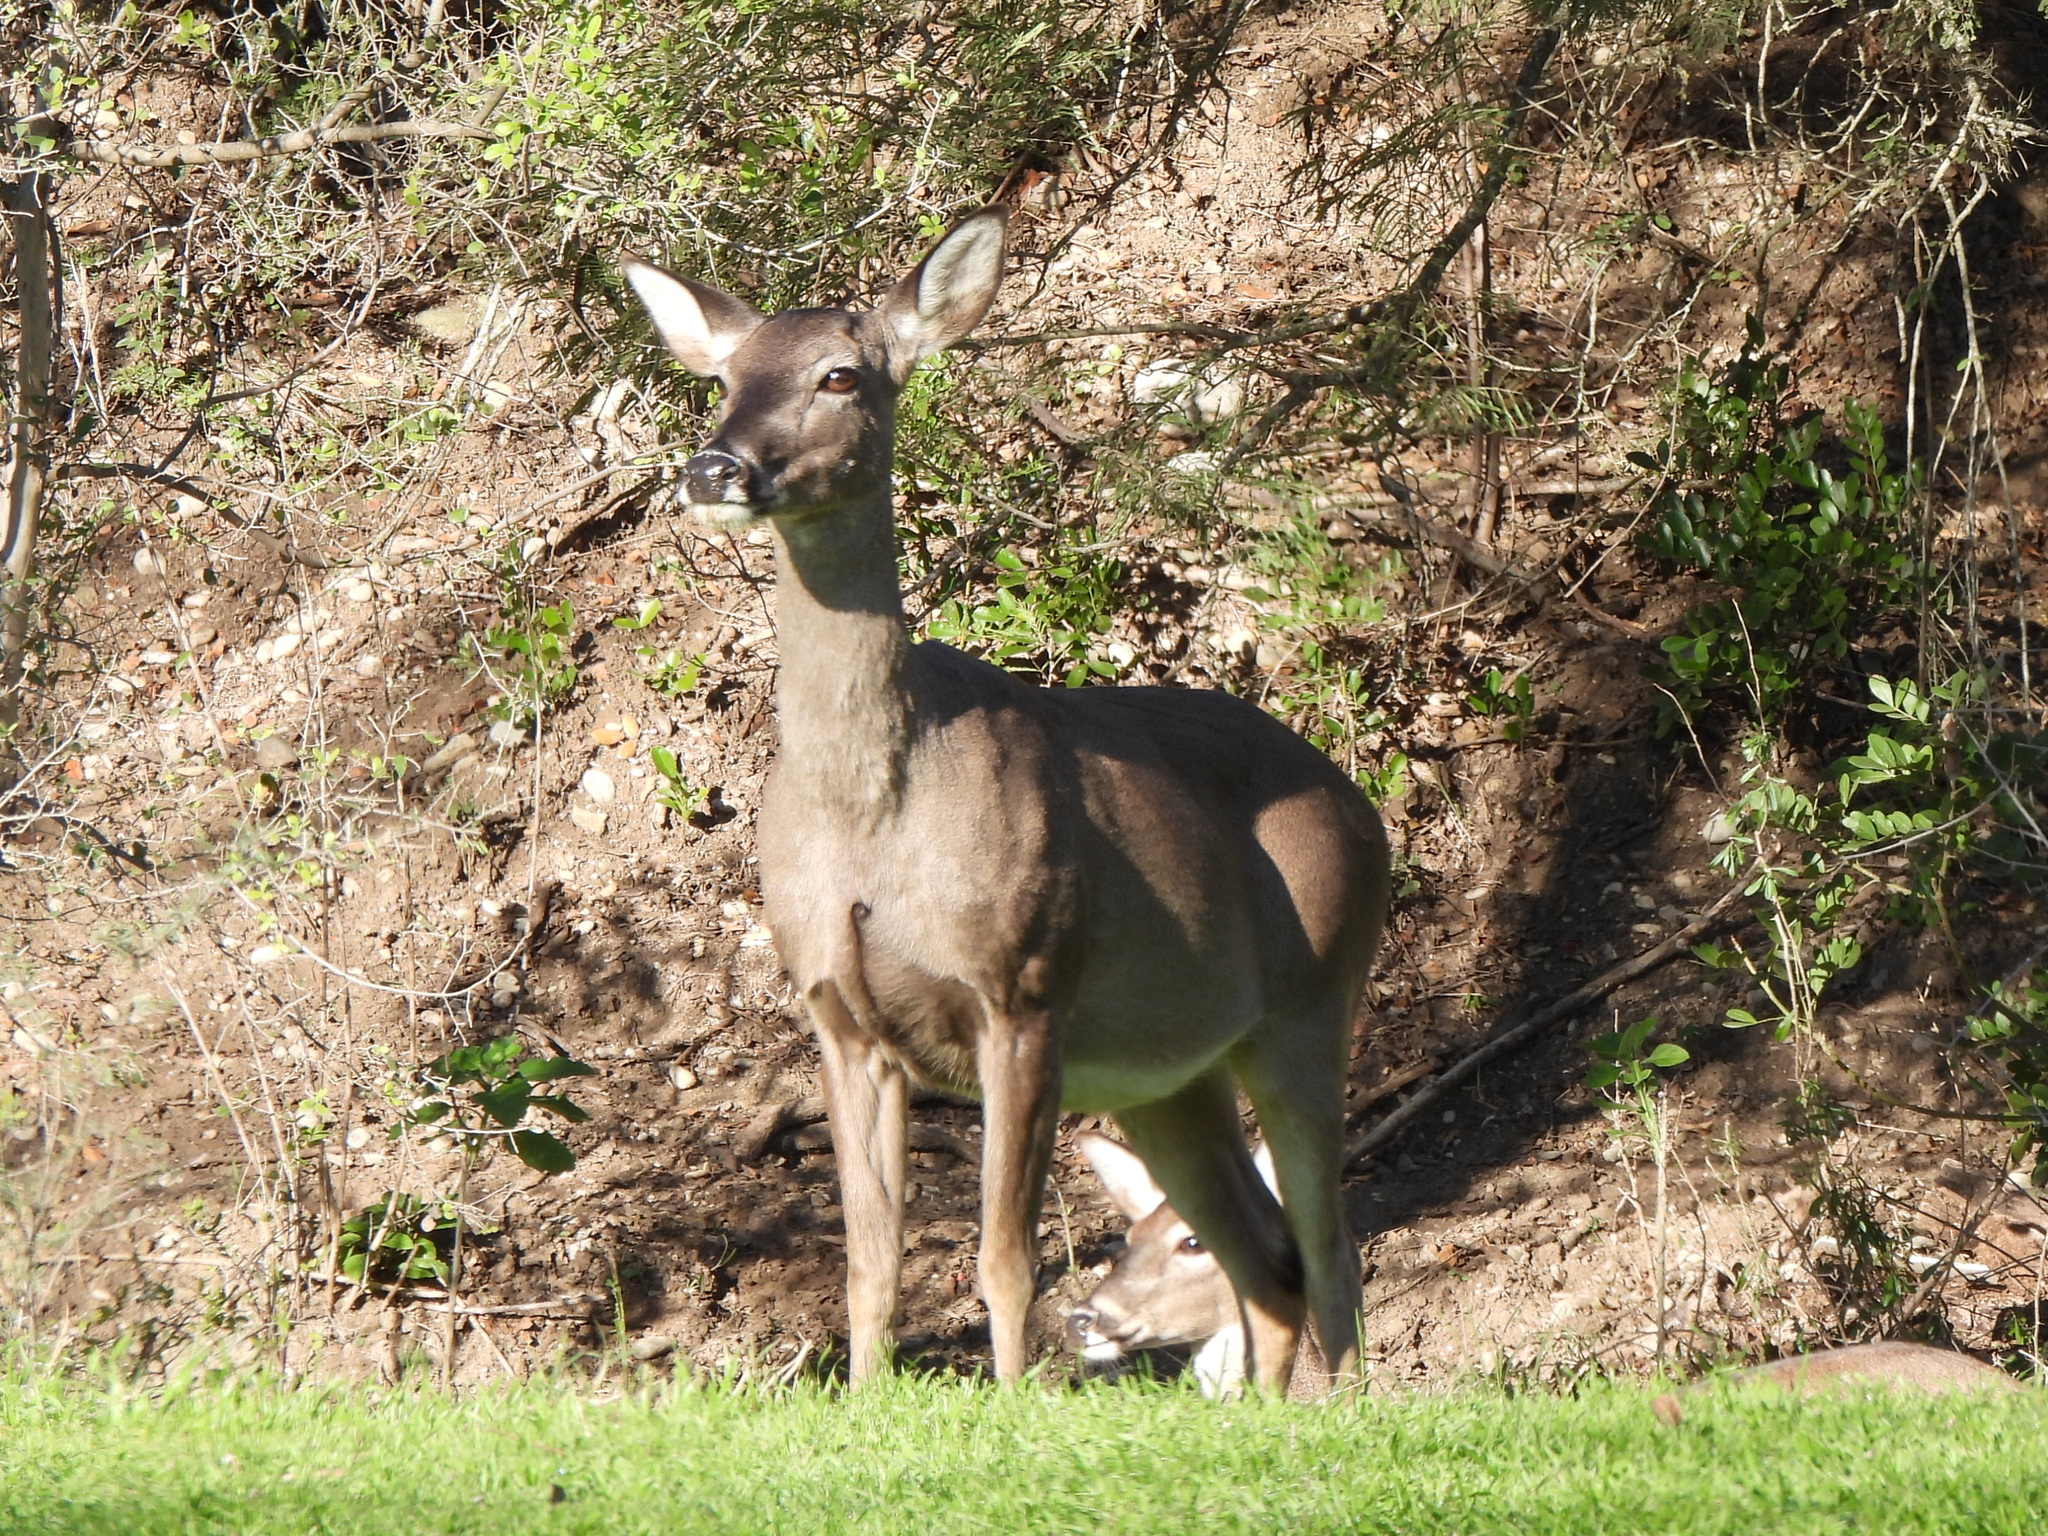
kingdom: Animalia
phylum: Chordata
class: Mammalia
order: Artiodactyla
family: Cervidae
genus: Odocoileus
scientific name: Odocoileus virginianus
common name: White-tailed deer
